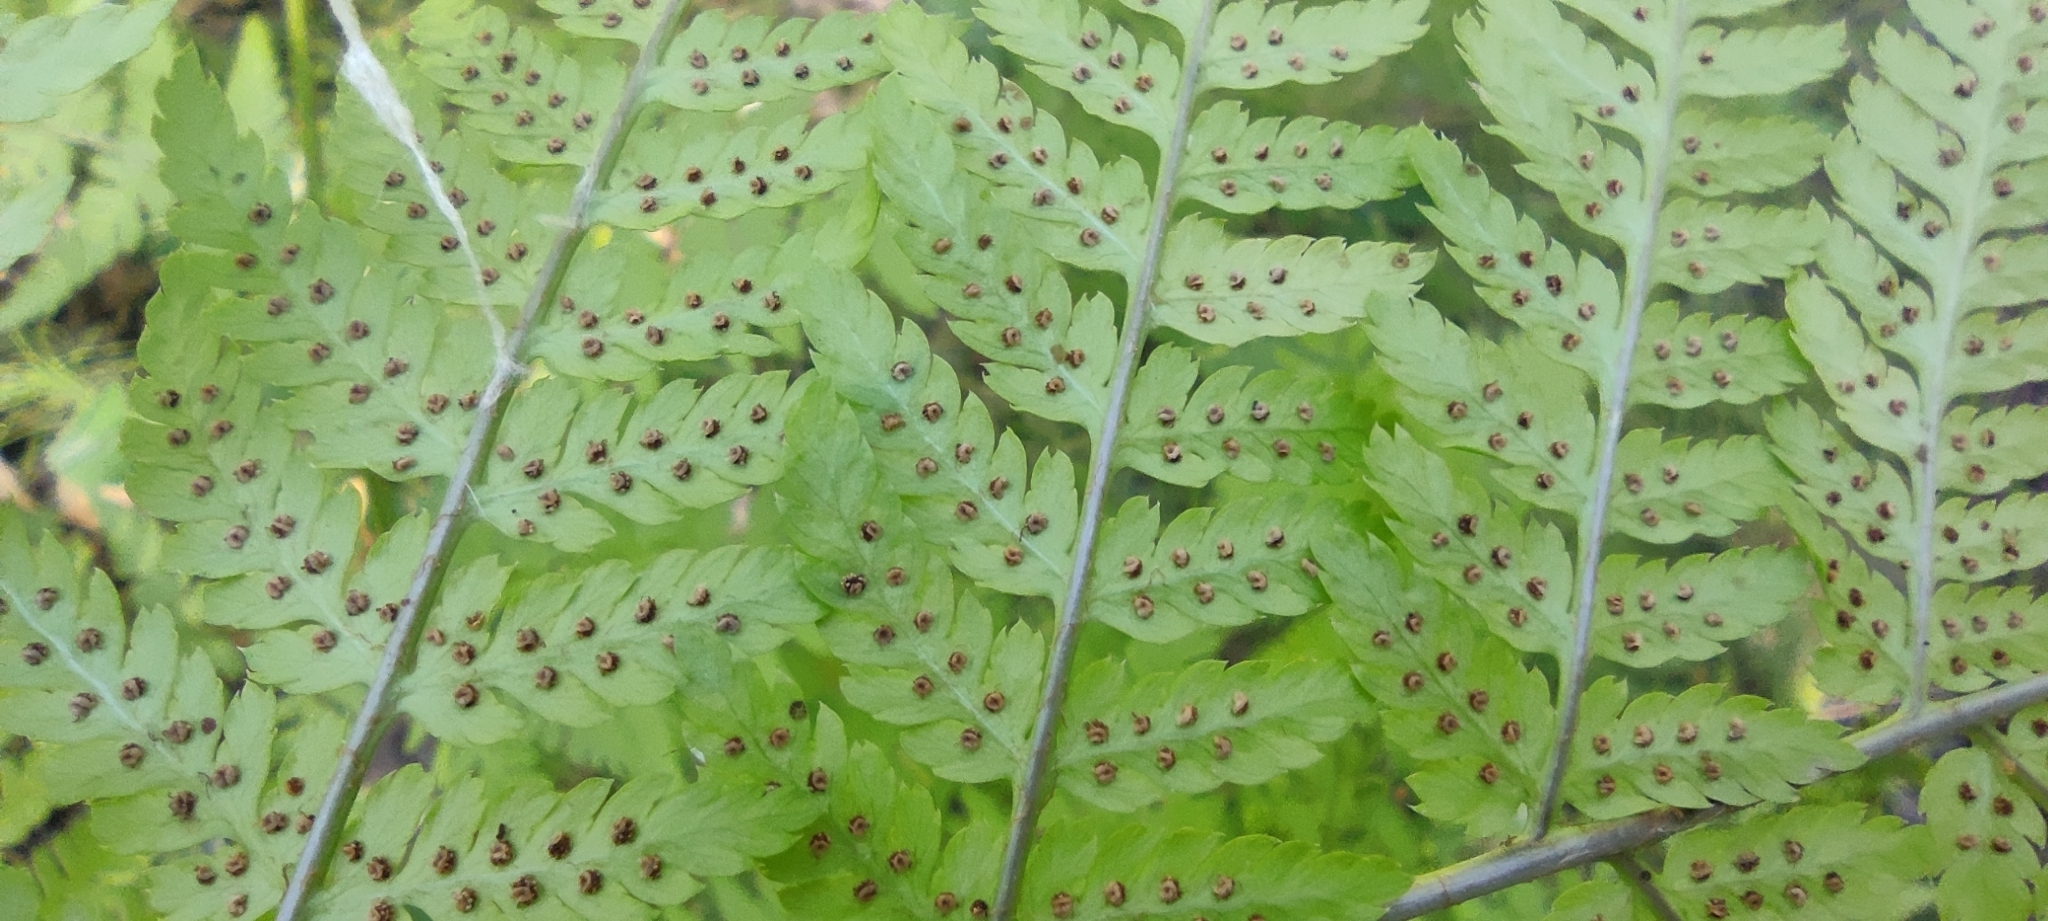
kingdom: Plantae
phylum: Tracheophyta
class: Polypodiopsida
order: Polypodiales
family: Dryopteridaceae
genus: Dryopteris
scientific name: Dryopteris expansa
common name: Northern buckler fern
